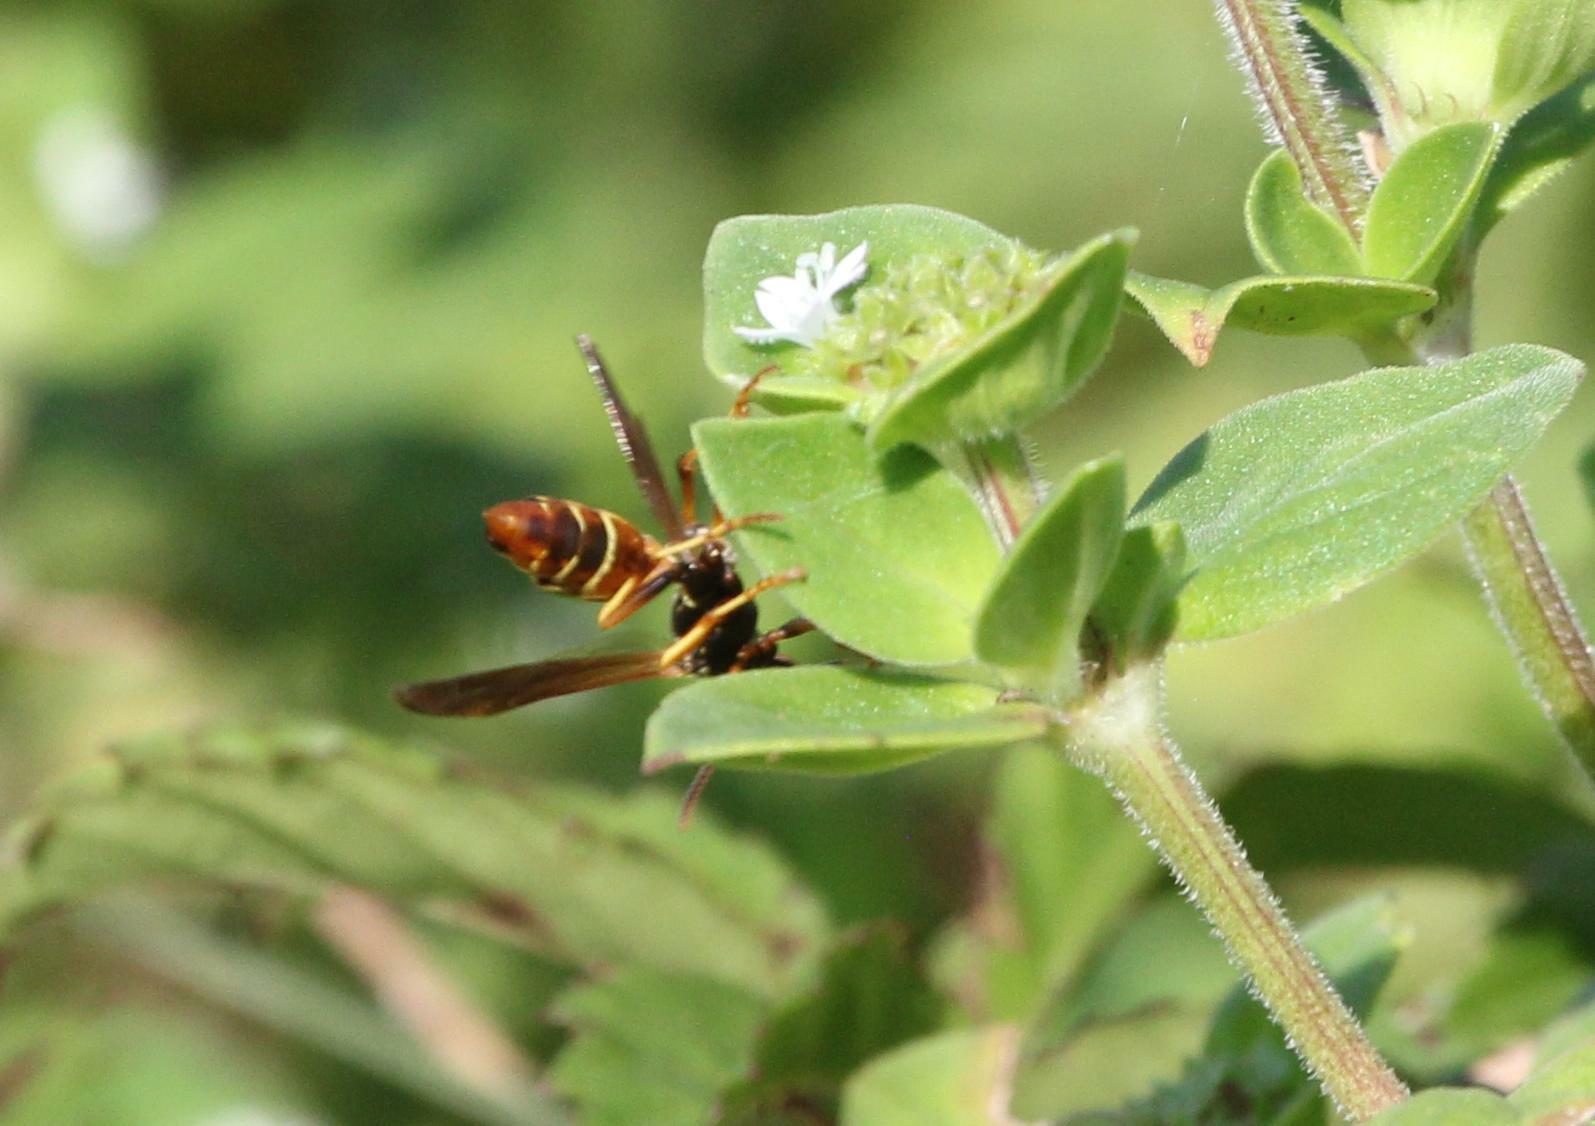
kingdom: Animalia
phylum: Arthropoda
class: Insecta
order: Hymenoptera
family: Eumenidae
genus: Polistes
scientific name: Polistes dorsalis
